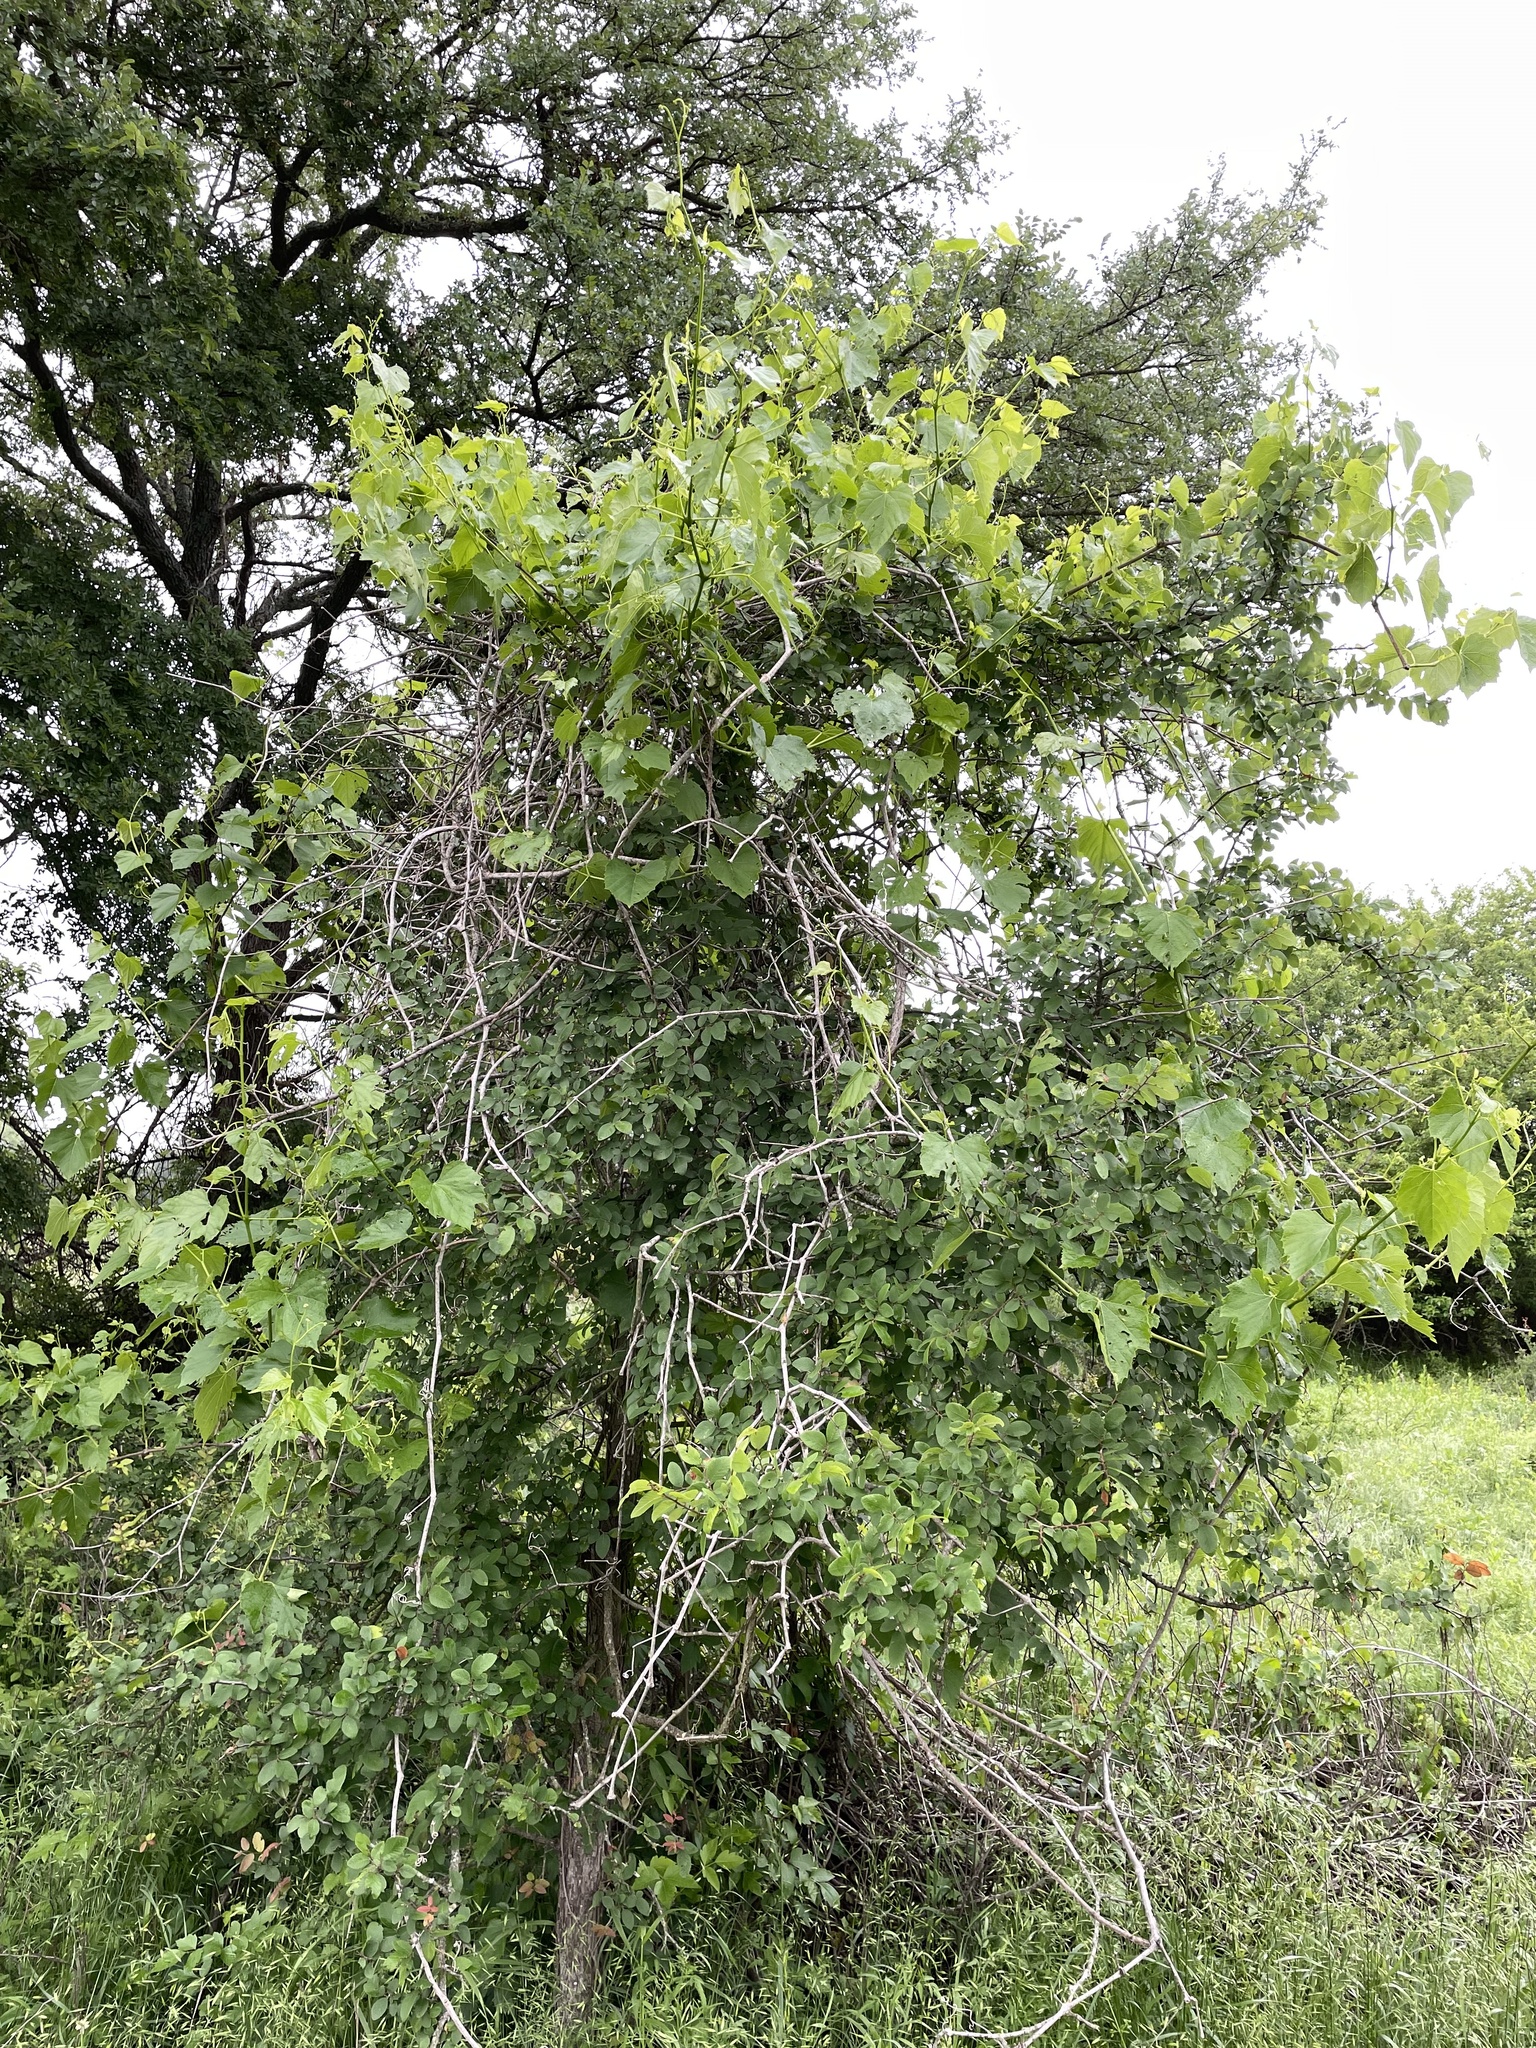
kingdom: Plantae
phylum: Tracheophyta
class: Magnoliopsida
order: Vitales
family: Vitaceae
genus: Ampelopsis
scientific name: Ampelopsis cordata
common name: Heart-leaf ampelopsis
